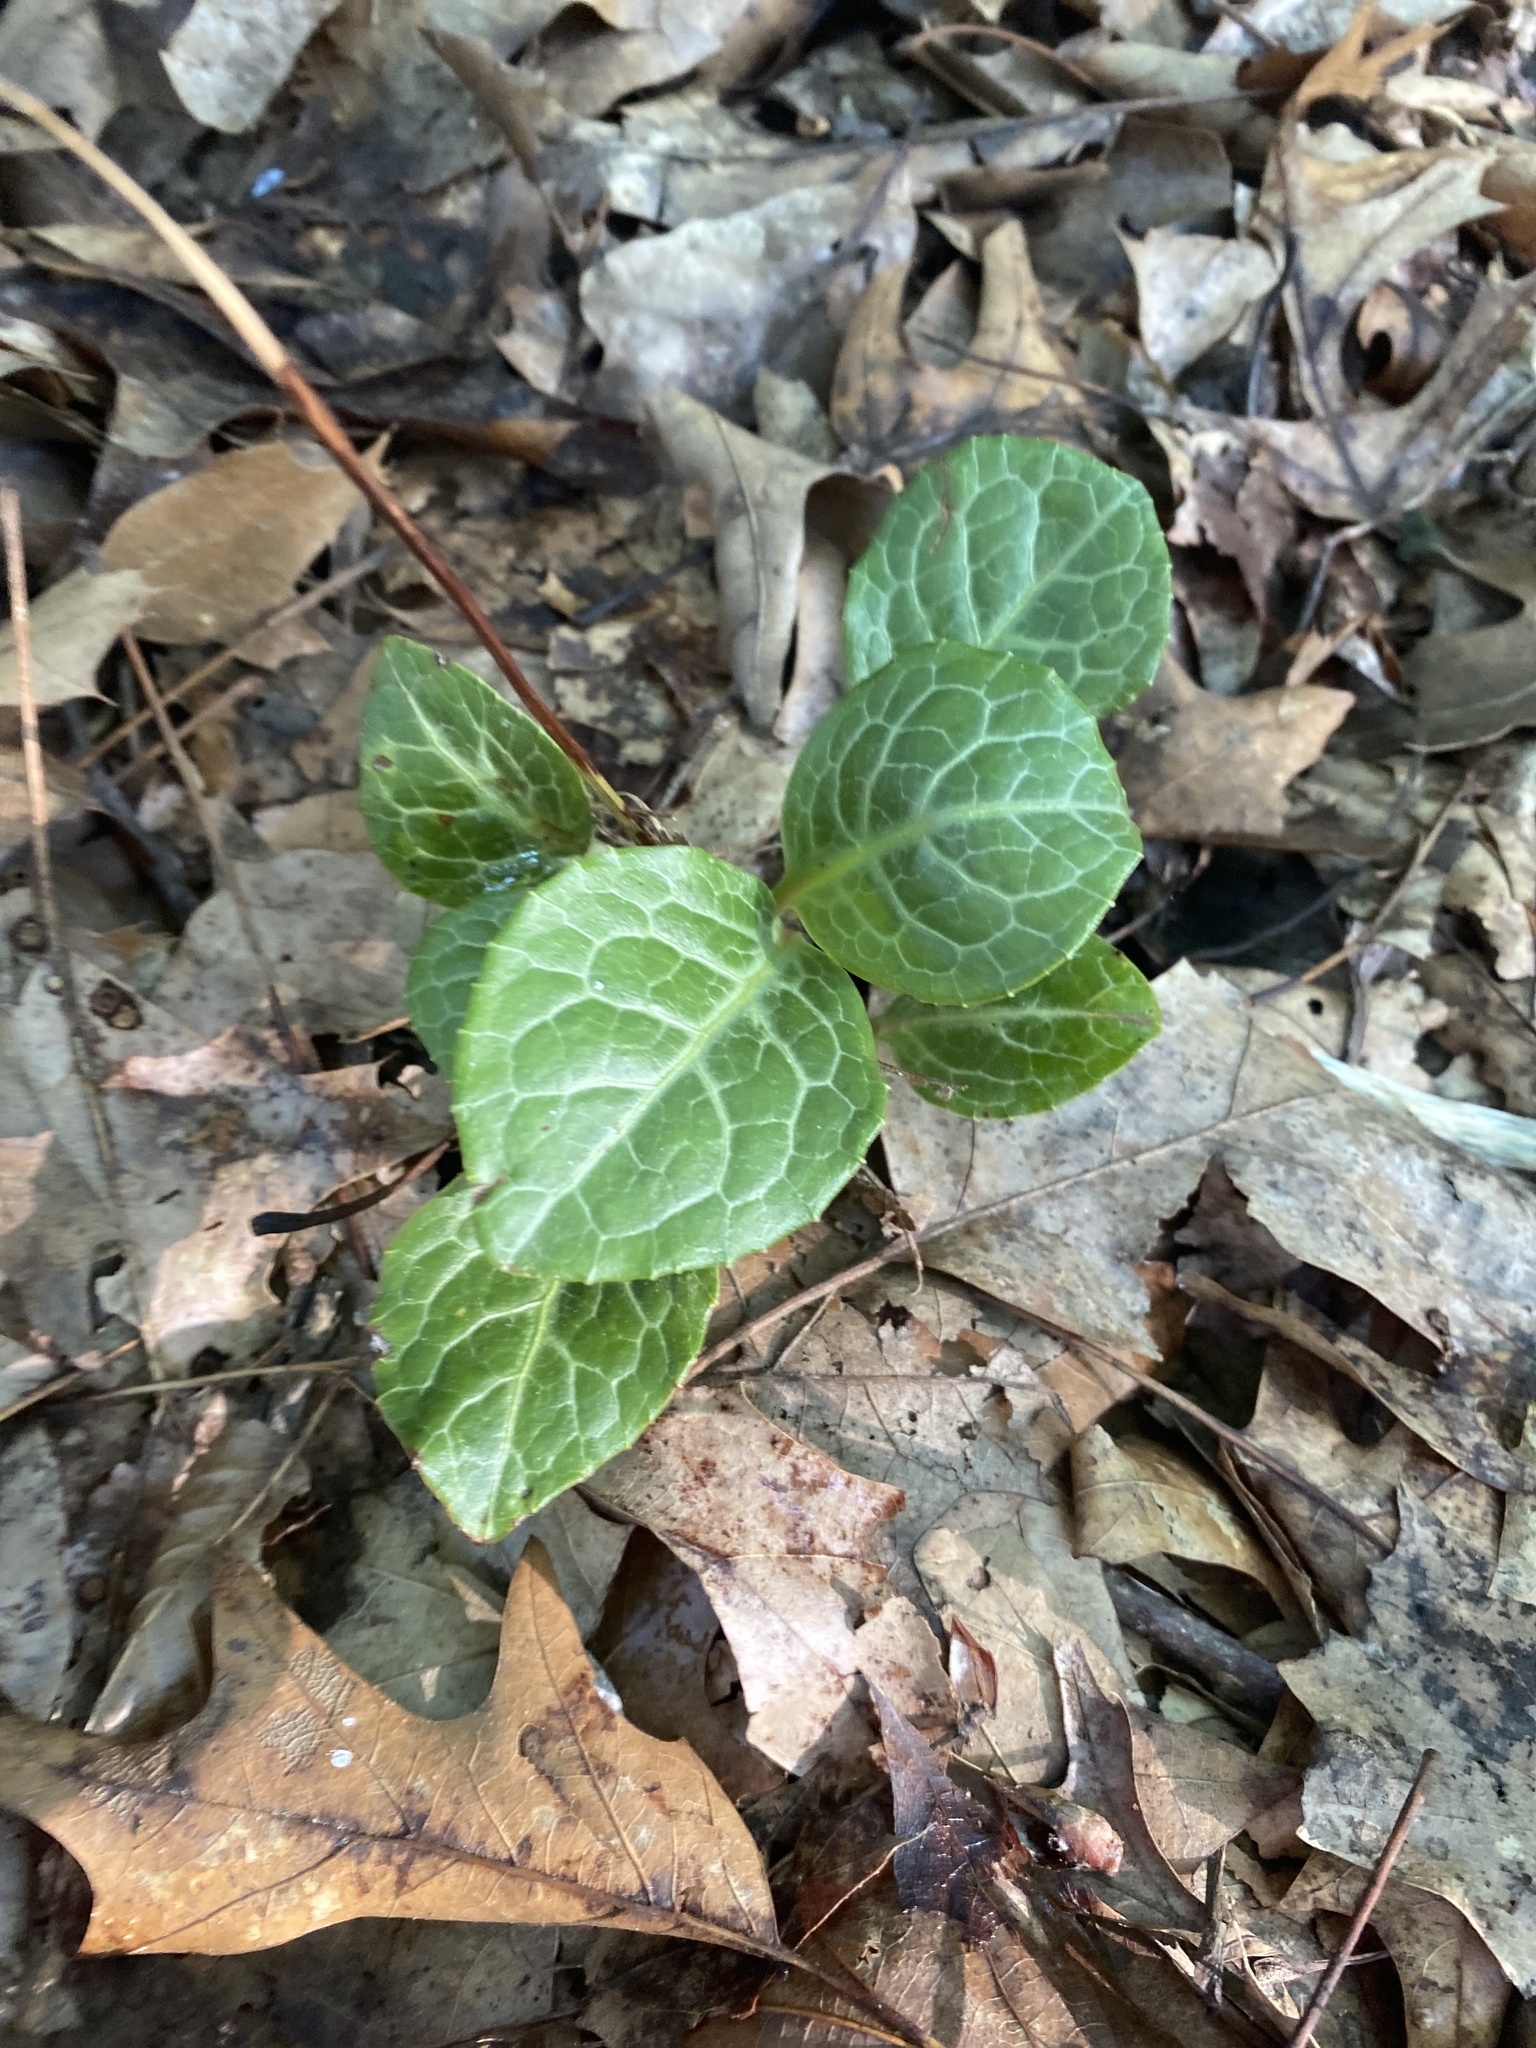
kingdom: Plantae
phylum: Tracheophyta
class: Magnoliopsida
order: Ericales
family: Ericaceae
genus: Pyrola
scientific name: Pyrola americana
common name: American wintergreen
